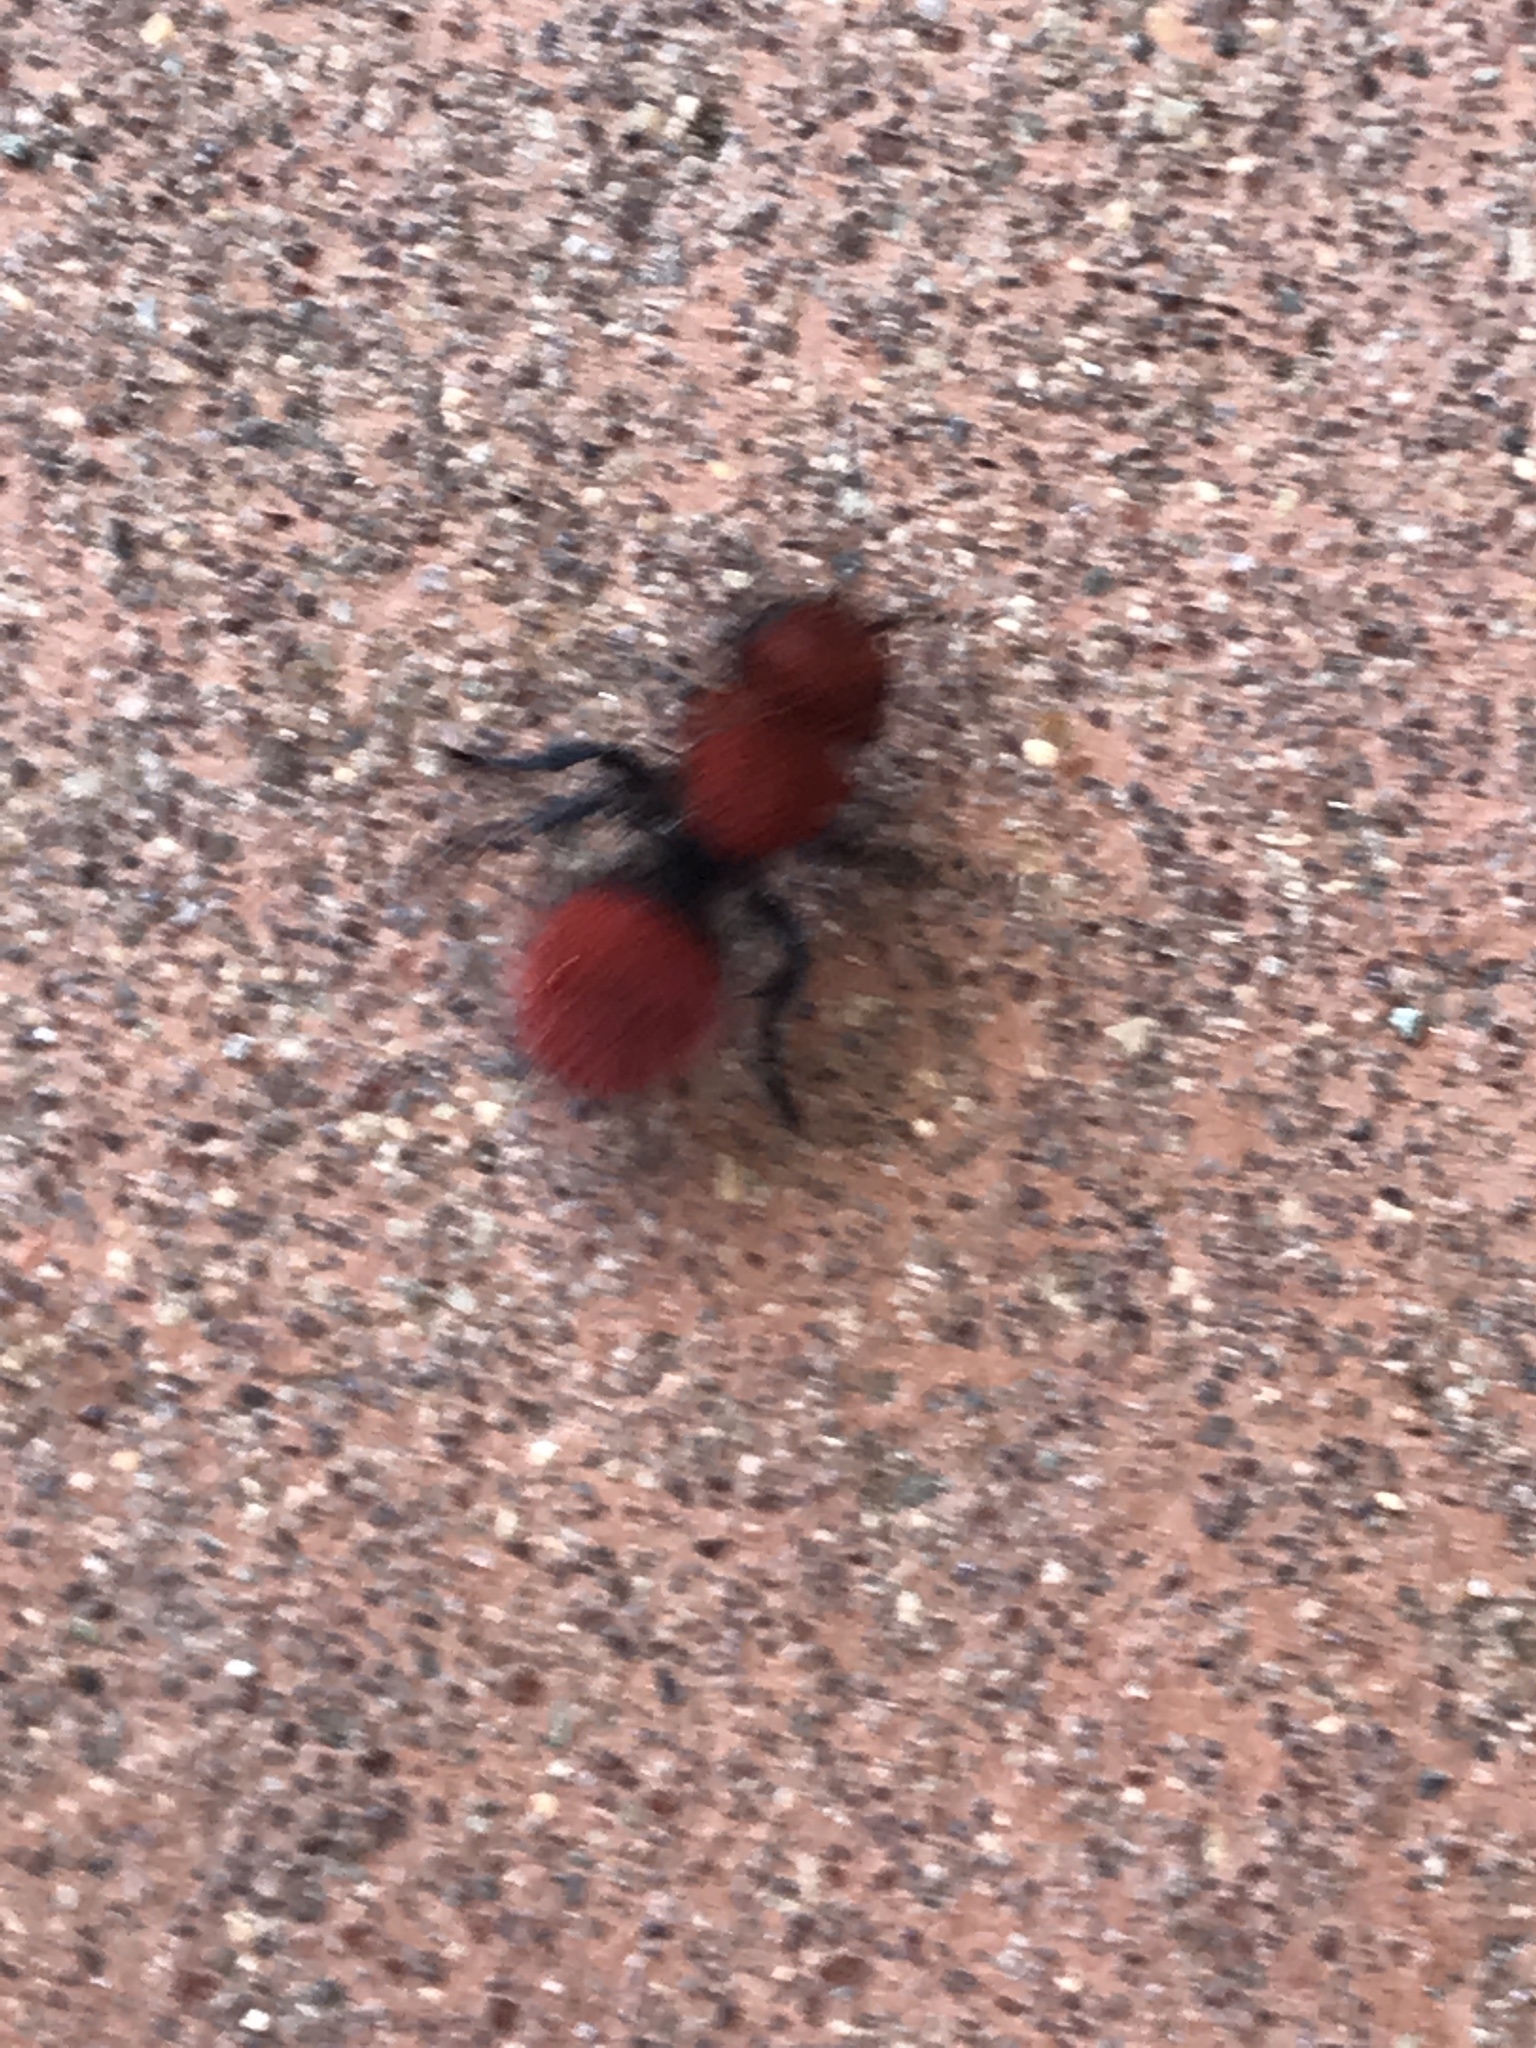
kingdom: Animalia
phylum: Arthropoda
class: Insecta
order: Hymenoptera
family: Mutillidae
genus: Dasymutilla
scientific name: Dasymutilla
